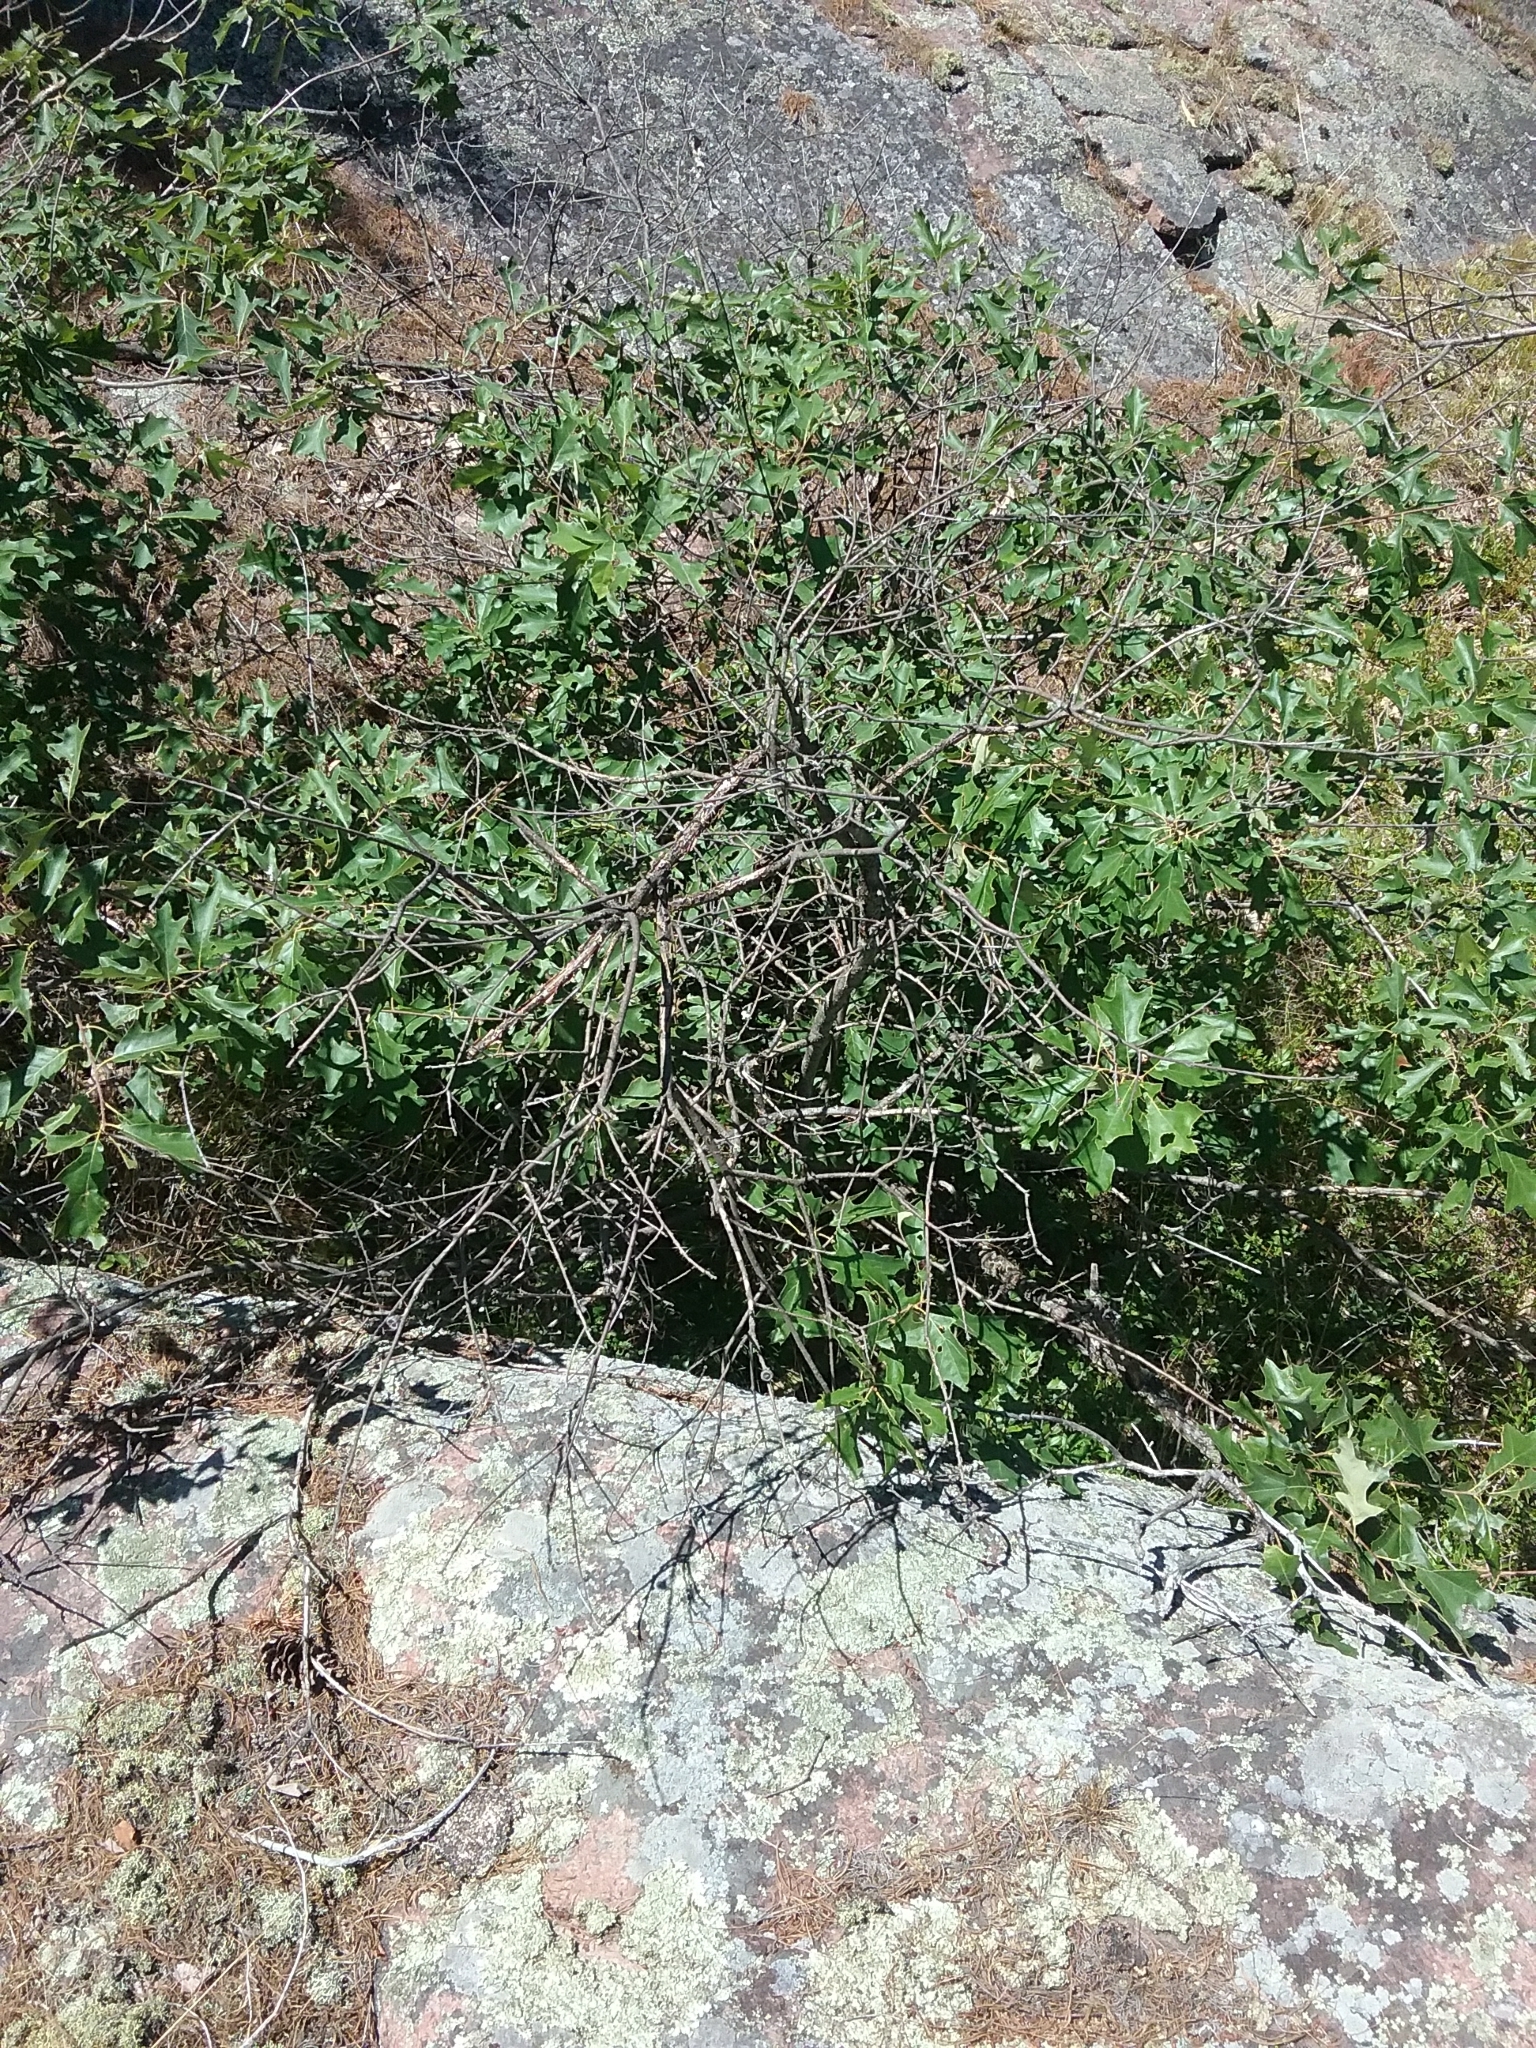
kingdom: Plantae
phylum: Tracheophyta
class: Magnoliopsida
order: Fagales
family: Fagaceae
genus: Quercus
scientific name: Quercus ilicifolia
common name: Bear oak
